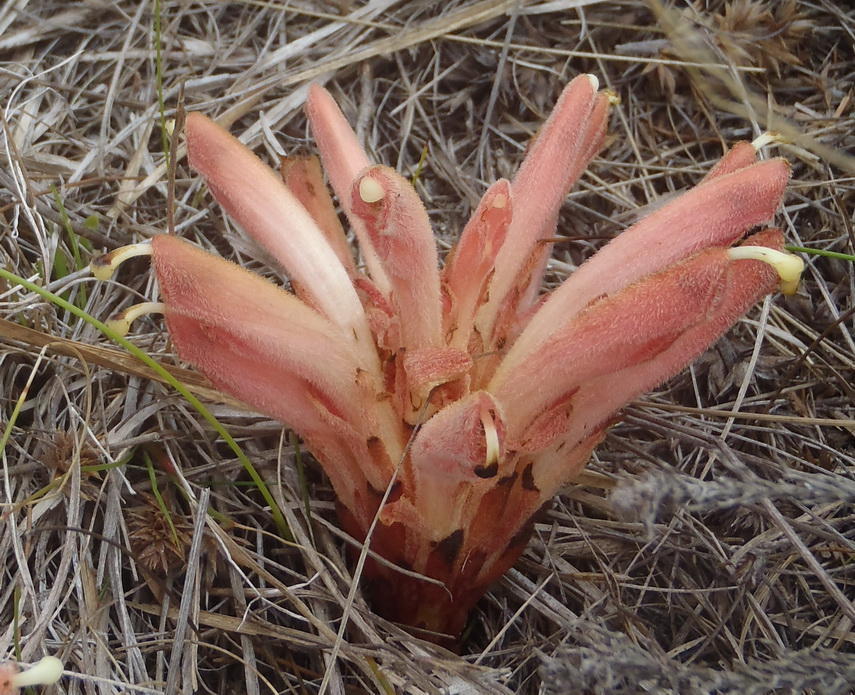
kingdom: Plantae
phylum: Tracheophyta
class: Magnoliopsida
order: Lamiales
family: Orobanchaceae
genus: Hyobanche
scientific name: Hyobanche rubra
